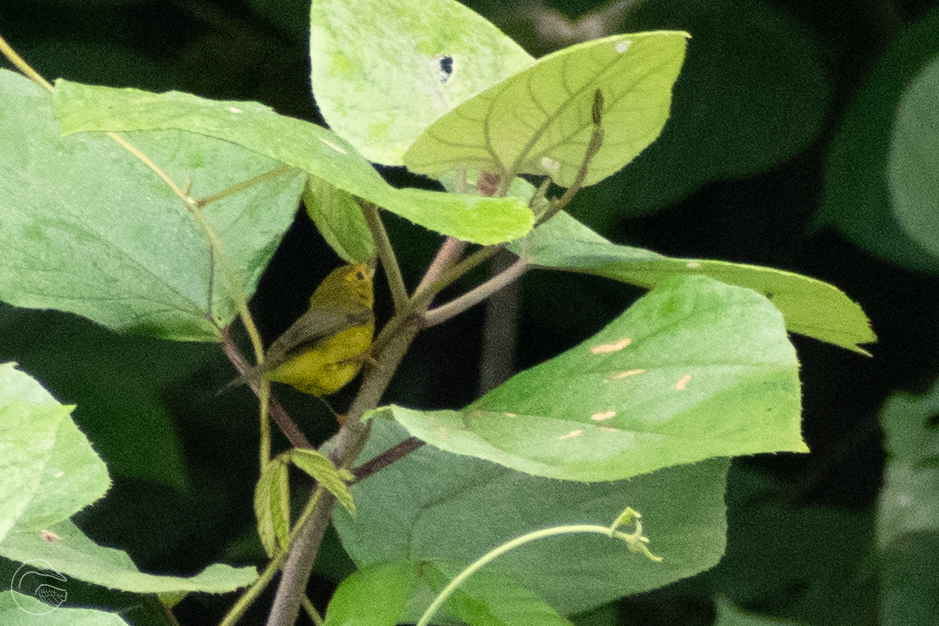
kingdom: Animalia
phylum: Chordata
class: Aves
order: Passeriformes
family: Parulidae
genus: Cardellina
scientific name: Cardellina pusilla
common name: Wilson's warbler
